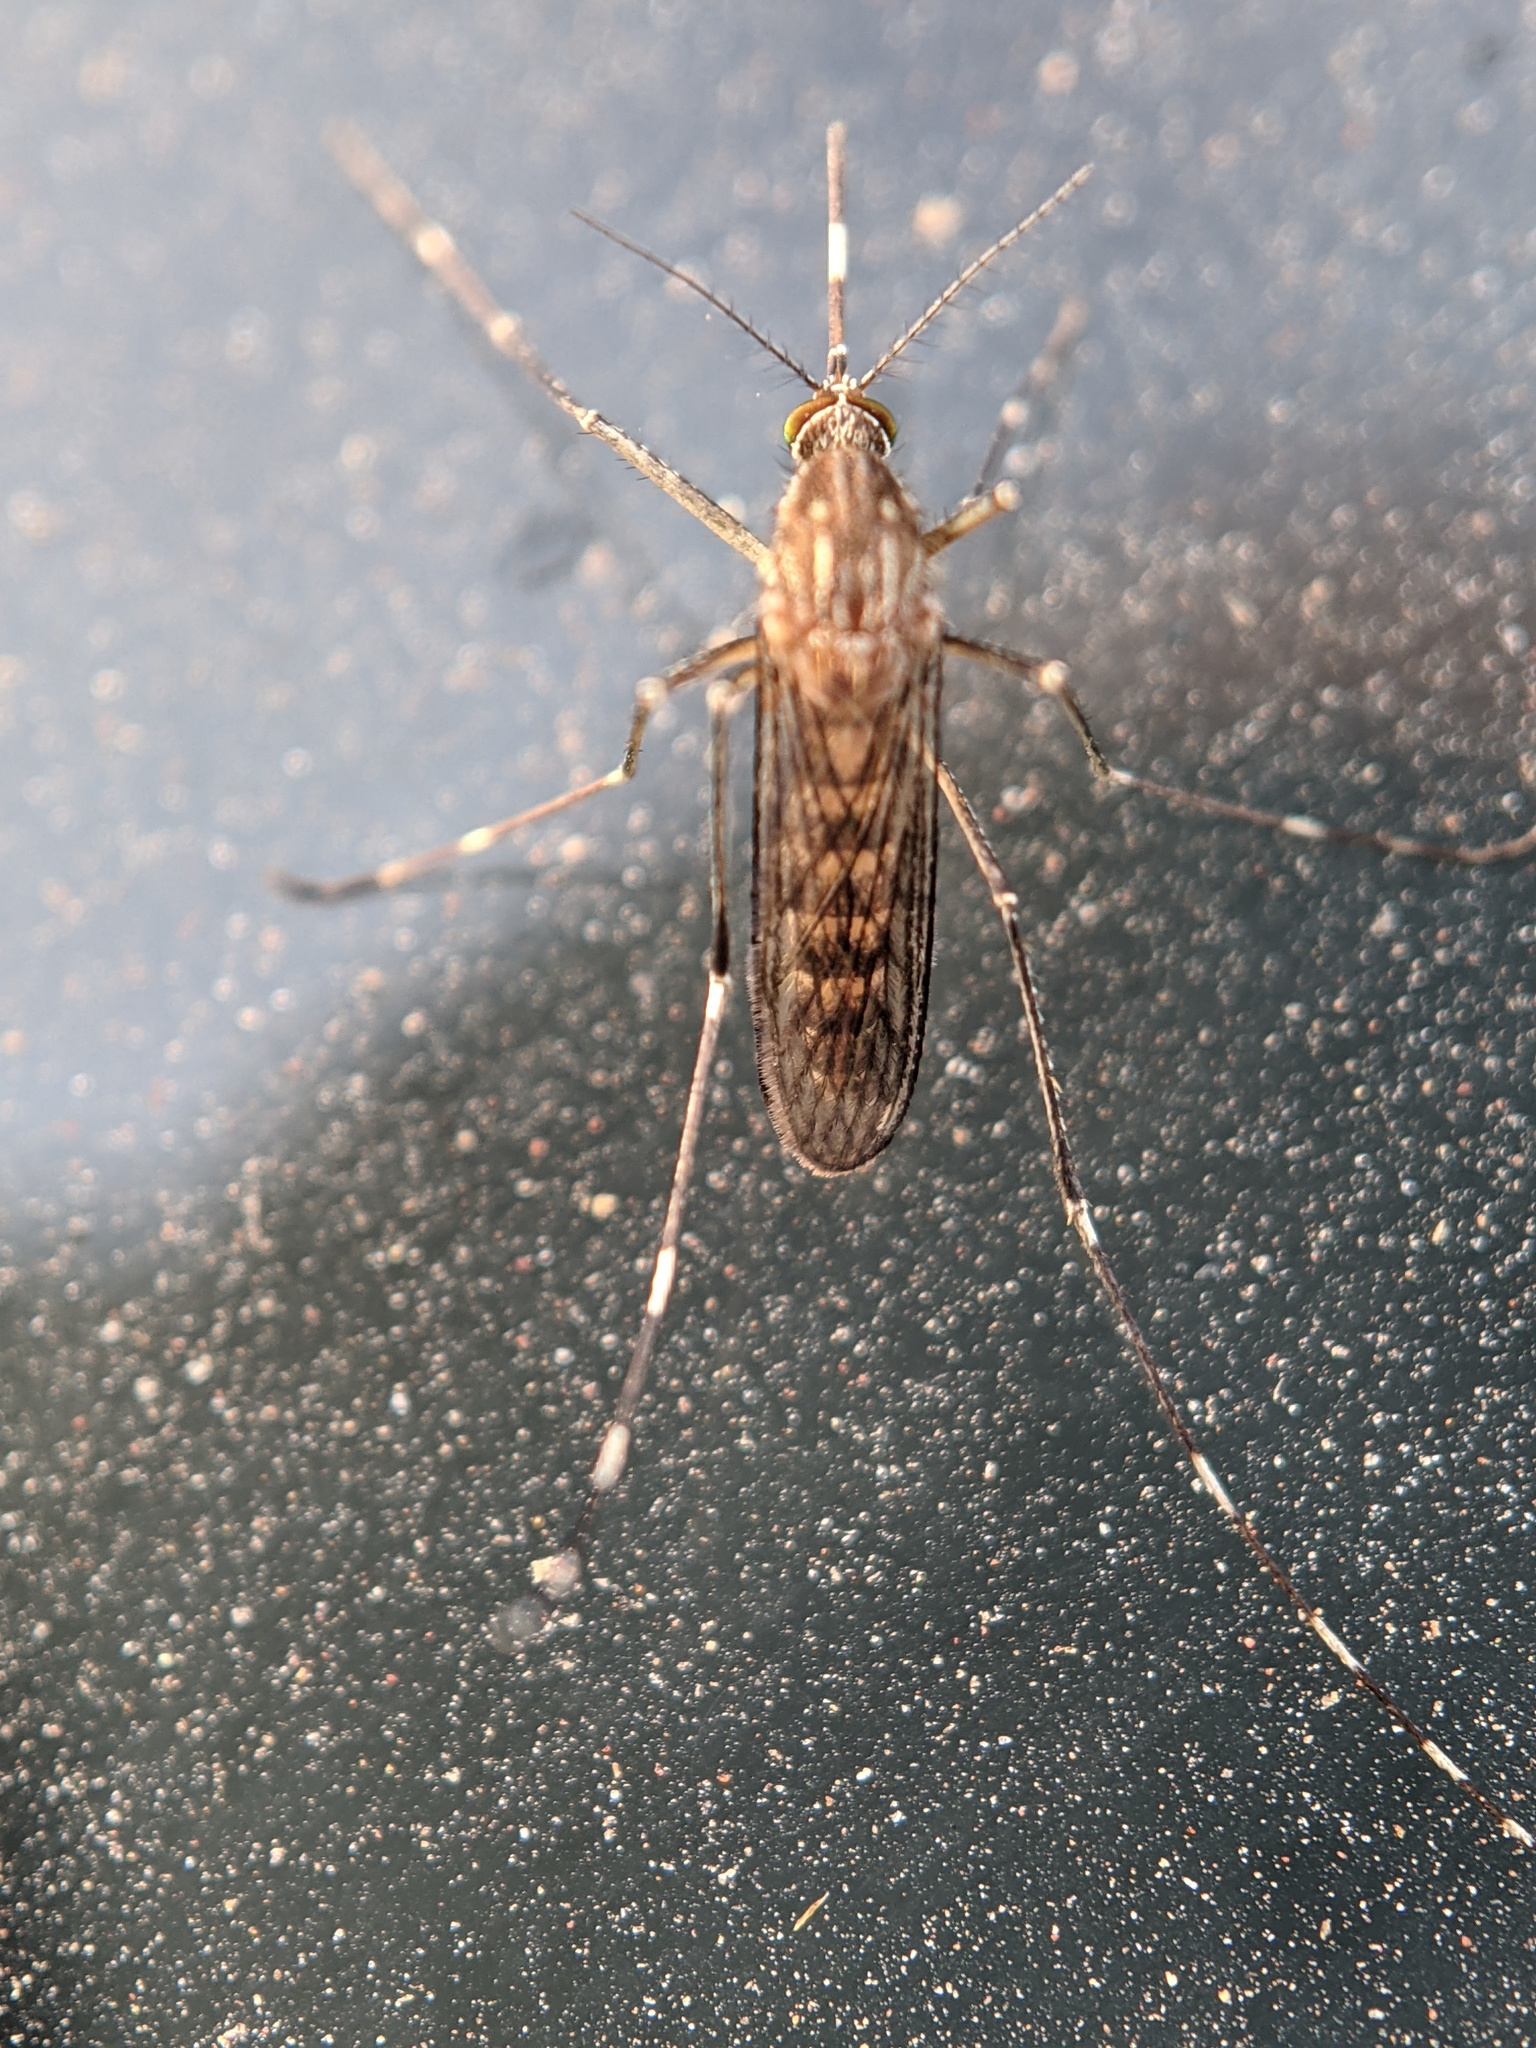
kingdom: Animalia
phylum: Arthropoda
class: Insecta
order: Diptera
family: Culicidae
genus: Culex
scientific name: Culex tarsalis
